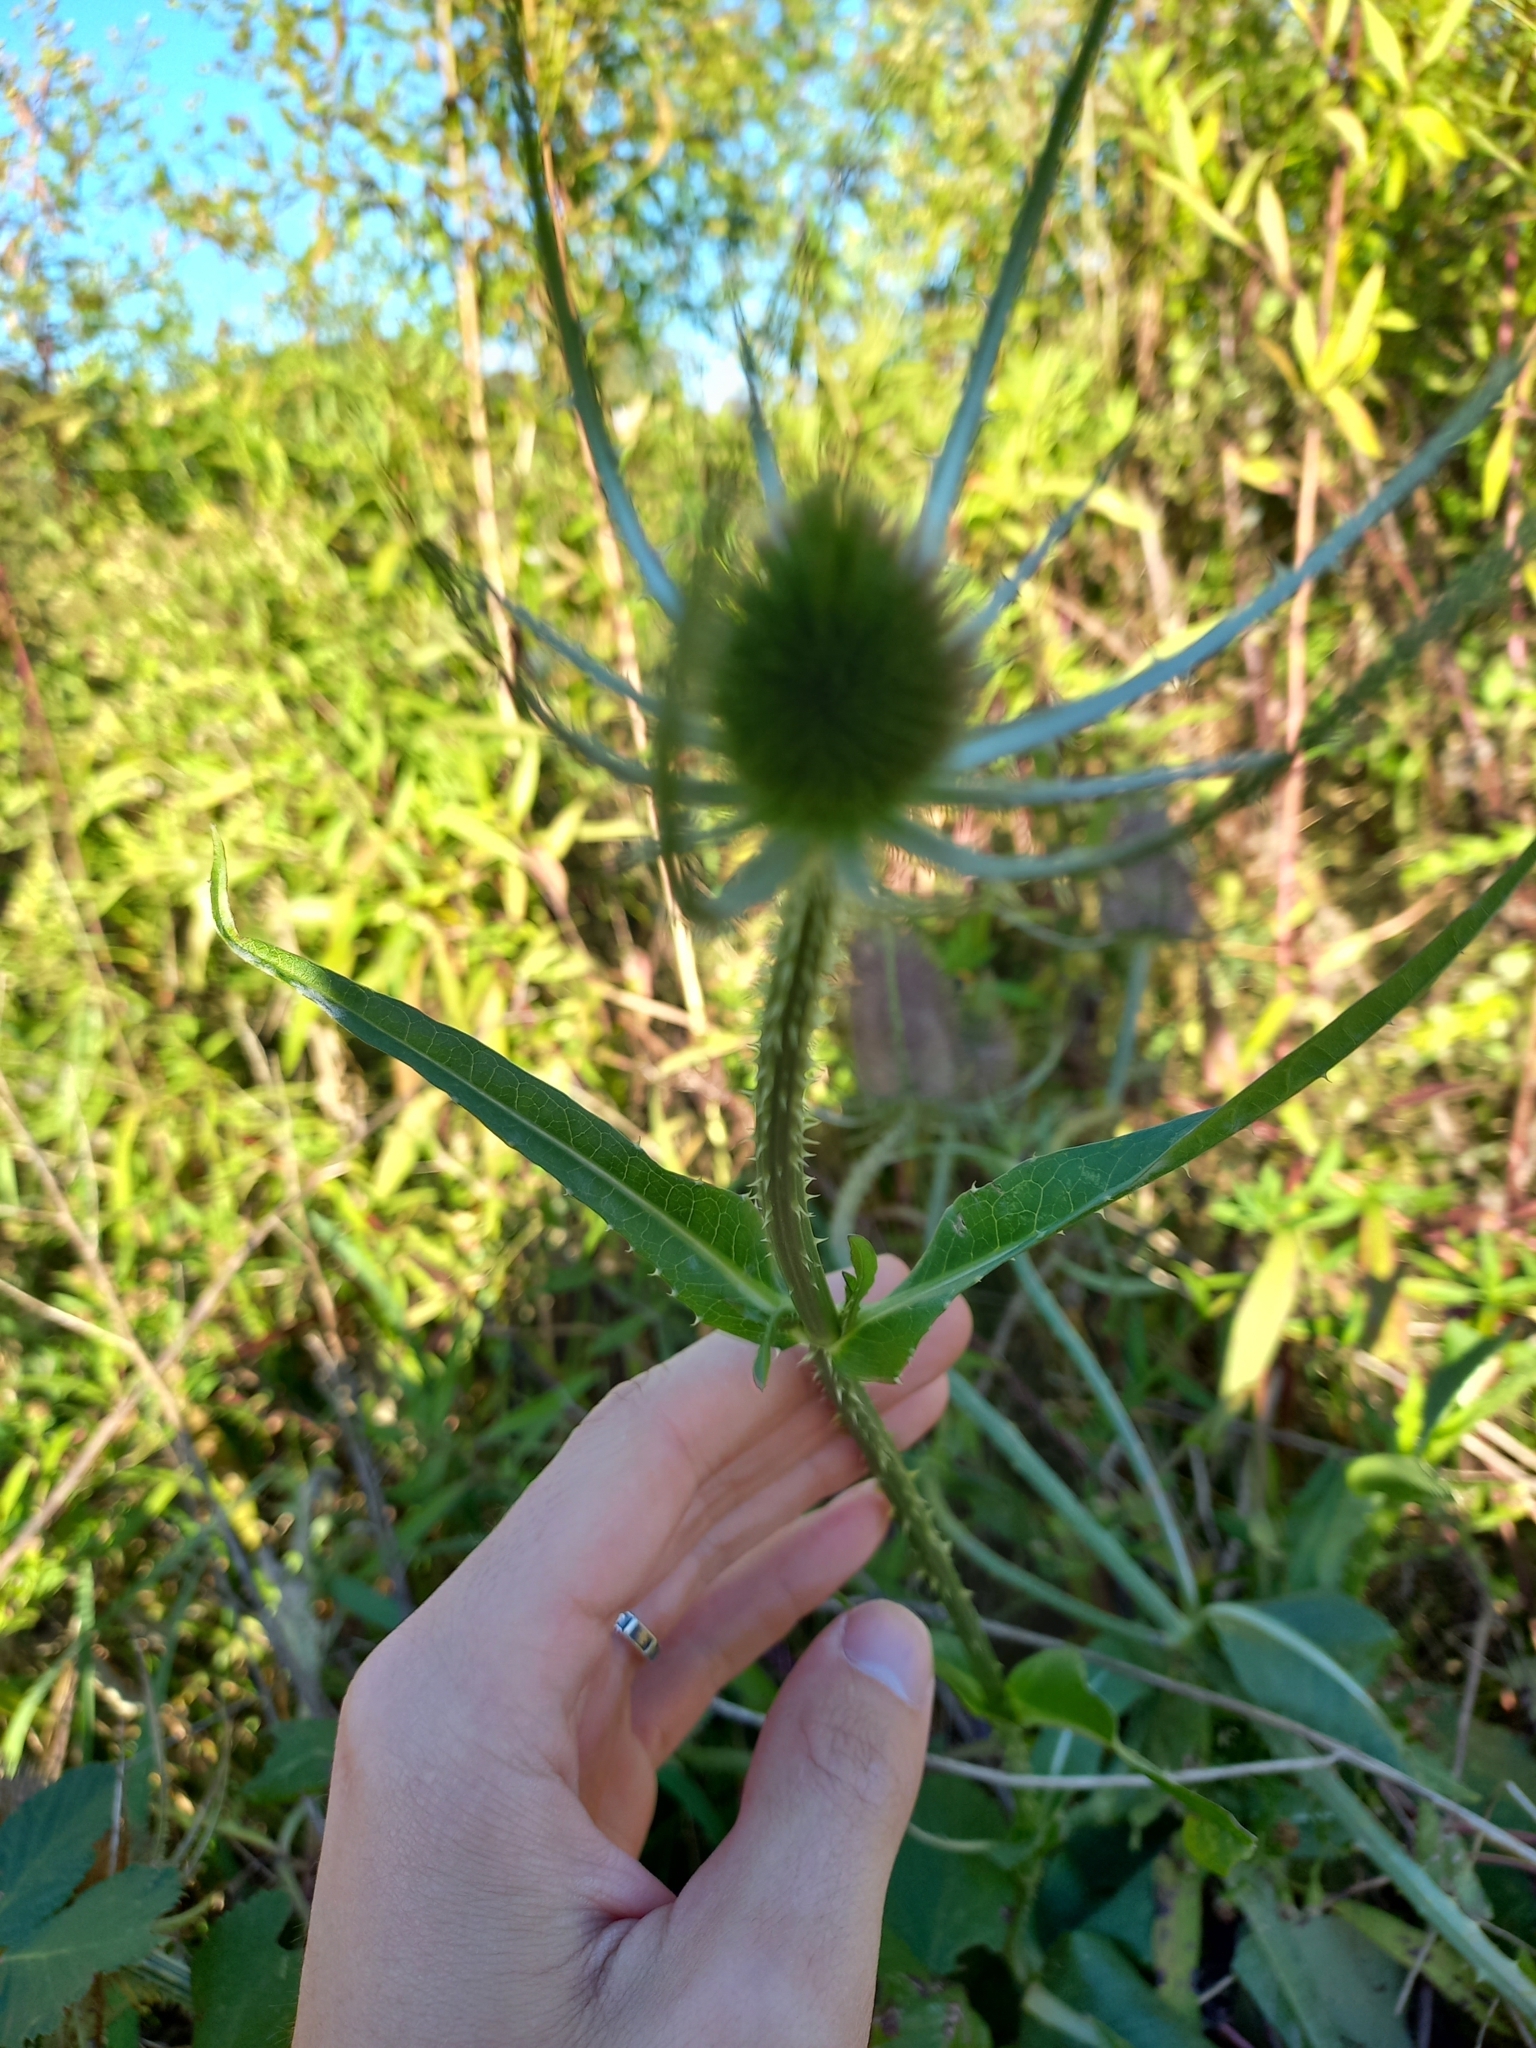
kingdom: Plantae
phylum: Tracheophyta
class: Magnoliopsida
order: Dipsacales
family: Caprifoliaceae
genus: Dipsacus
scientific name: Dipsacus fullonum
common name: Teasel
